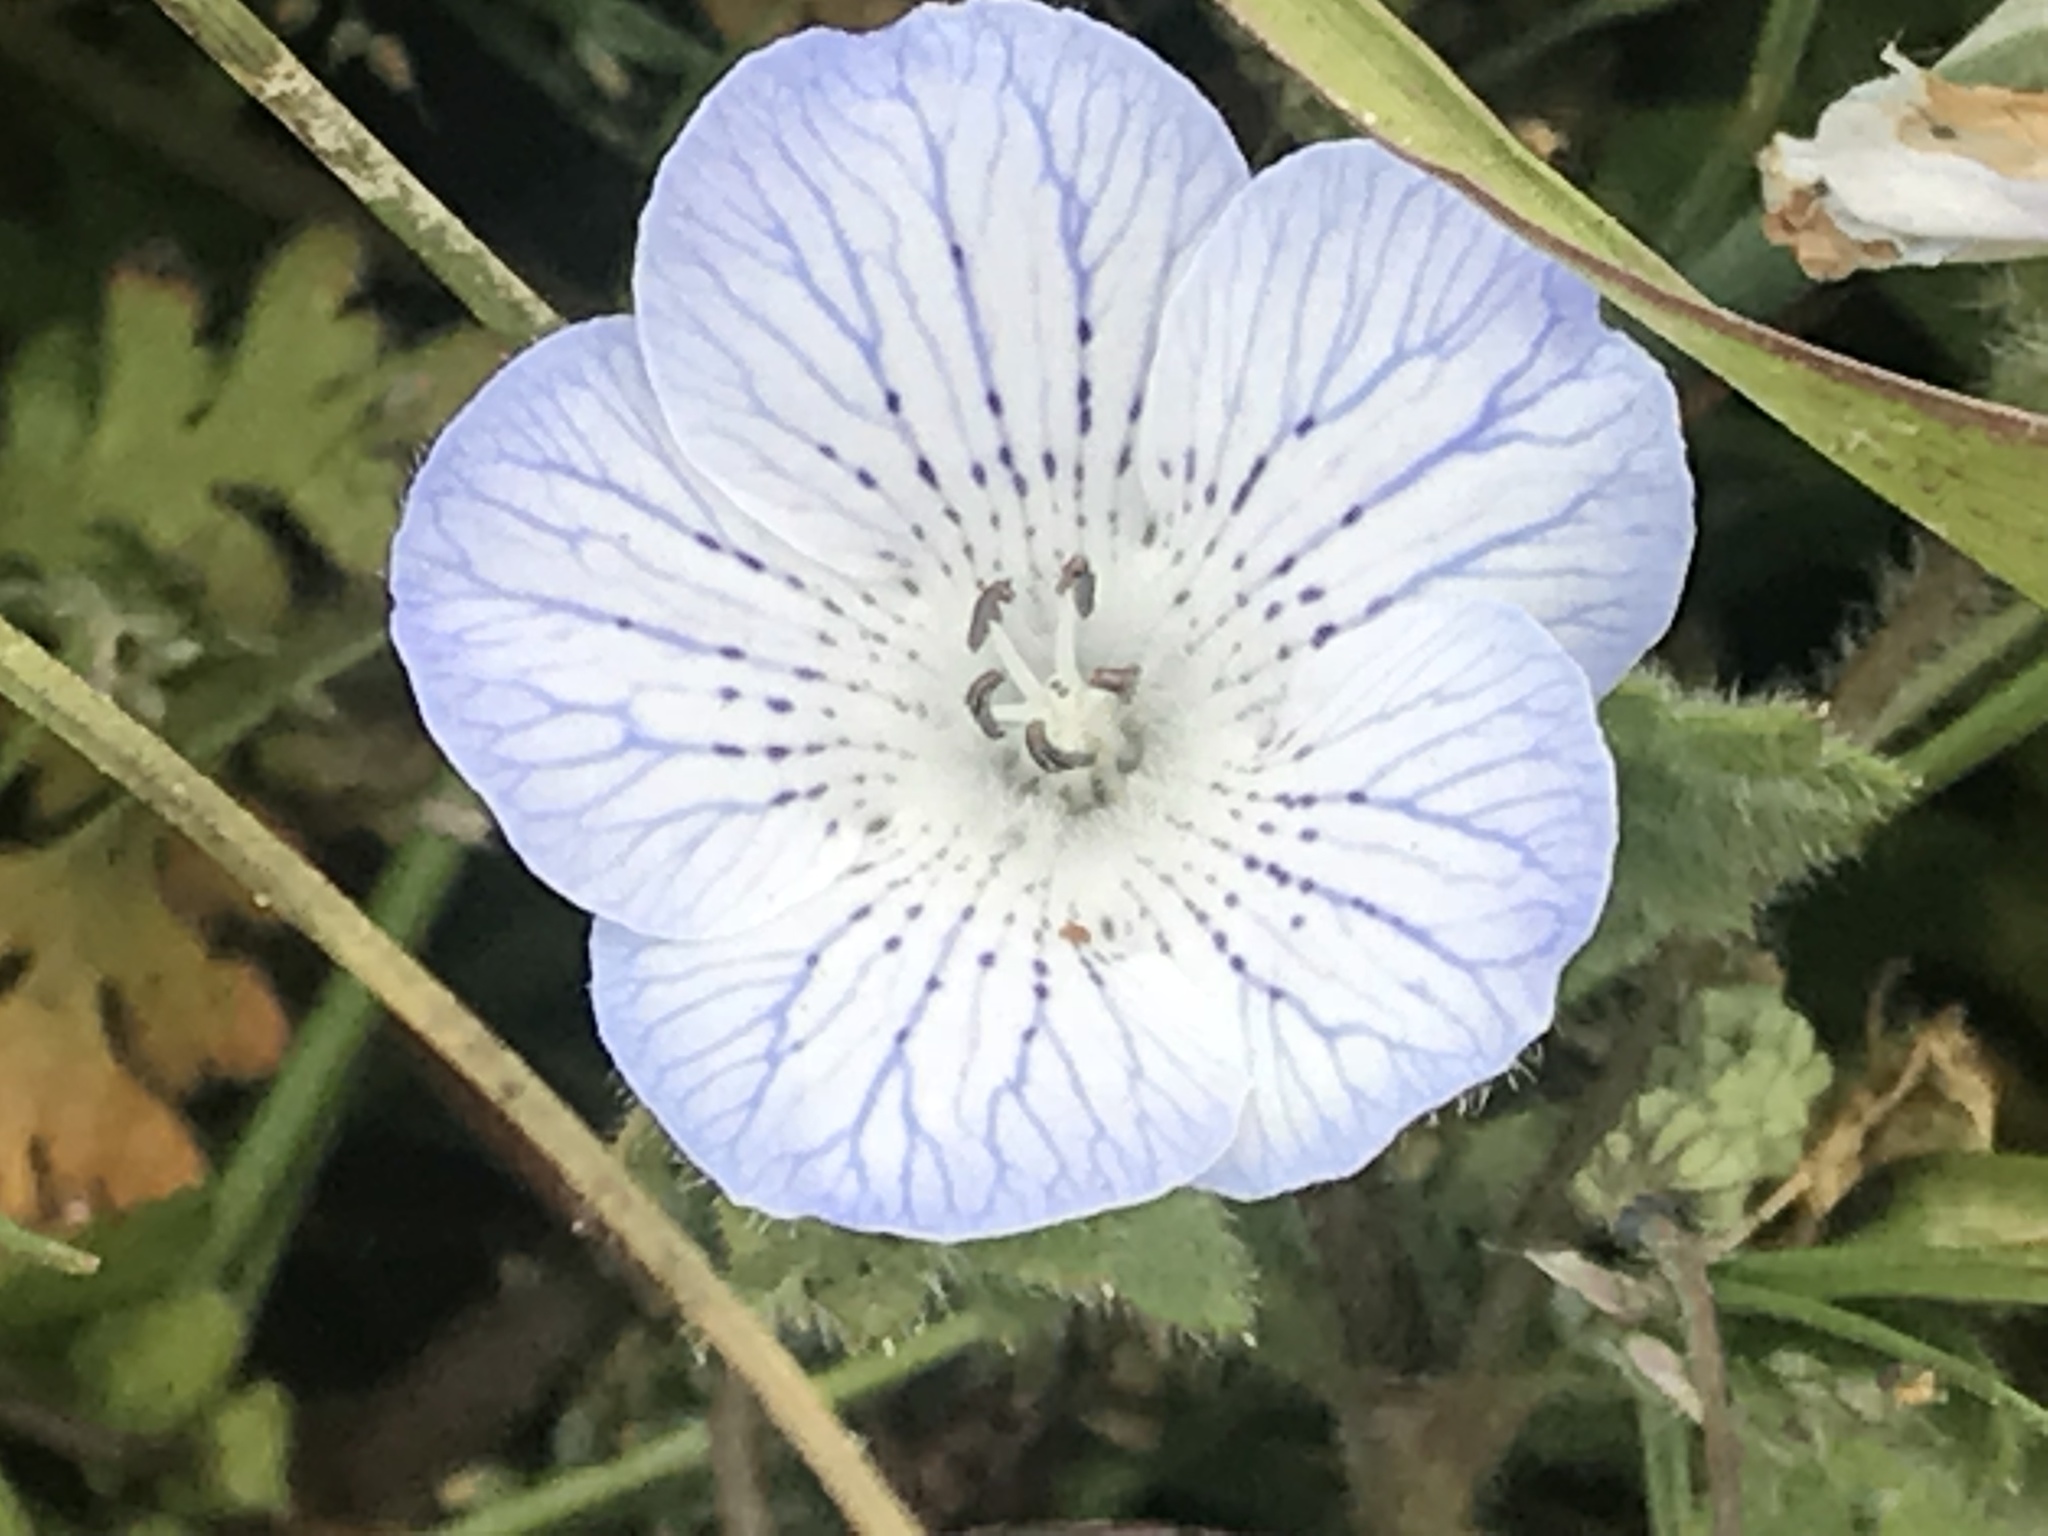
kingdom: Plantae
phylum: Tracheophyta
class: Magnoliopsida
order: Boraginales
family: Hydrophyllaceae
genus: Nemophila
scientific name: Nemophila menziesii
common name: Baby's-blue-eyes
